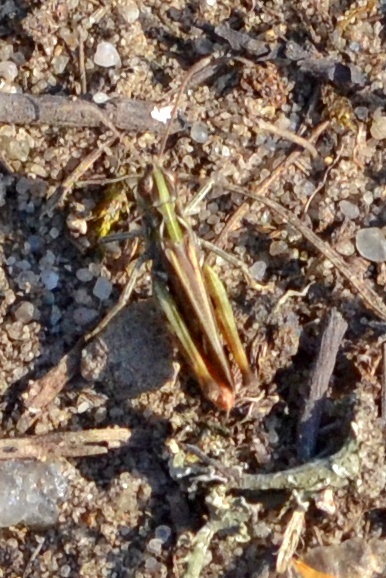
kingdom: Animalia
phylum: Arthropoda
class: Insecta
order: Orthoptera
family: Acrididae
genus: Myrmeleotettix
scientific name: Myrmeleotettix maculatus
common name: Mottled grasshopper
